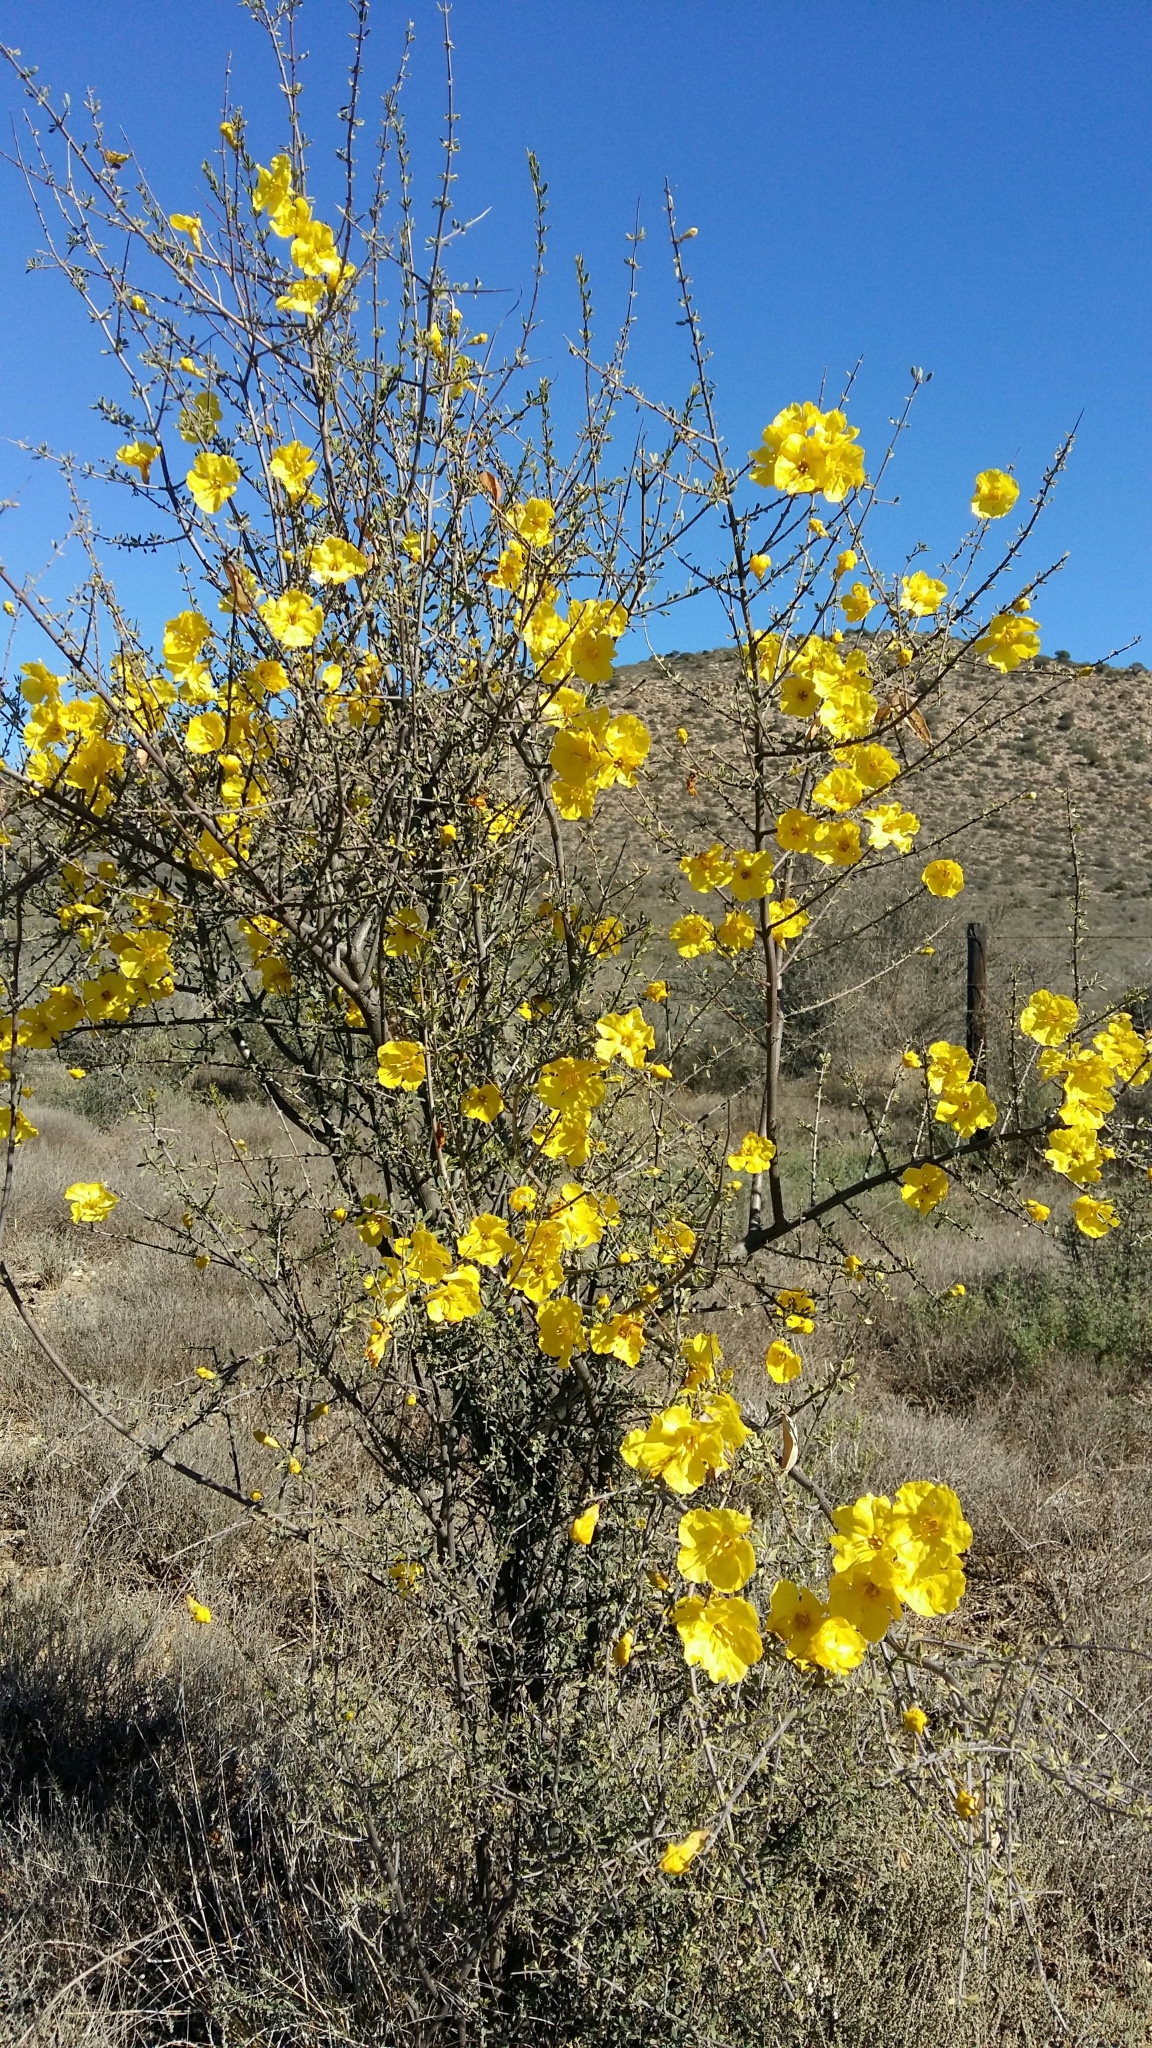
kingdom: Plantae
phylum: Tracheophyta
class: Magnoliopsida
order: Lamiales
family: Bignoniaceae
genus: Rhigozum
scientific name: Rhigozum obovatum
